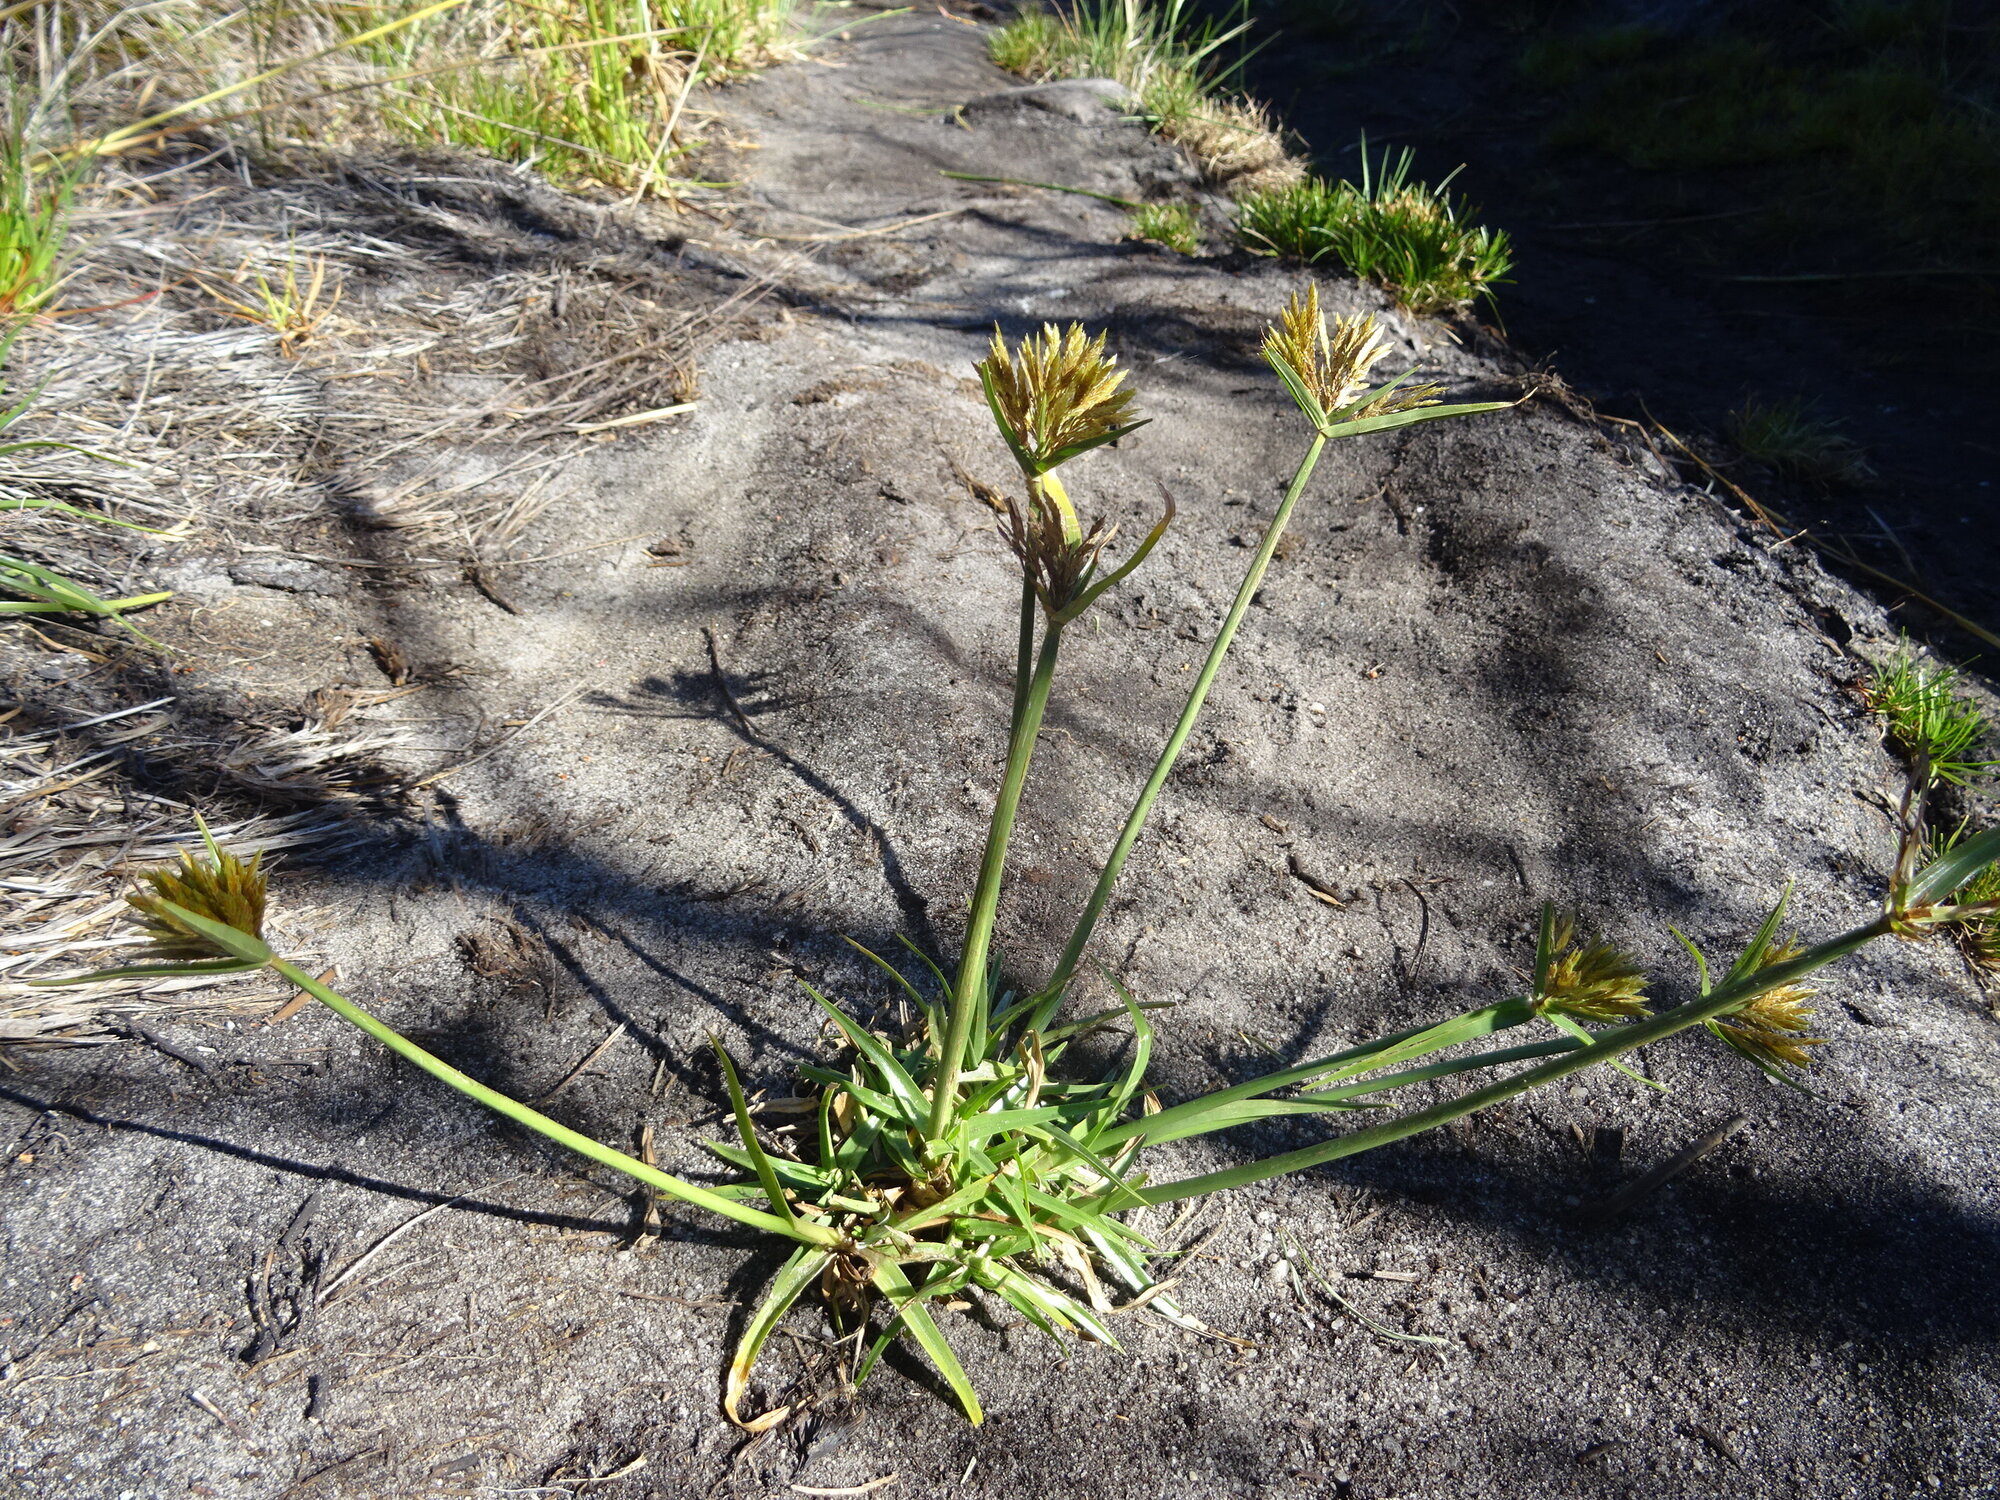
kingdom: Plantae
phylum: Tracheophyta
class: Liliopsida
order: Poales
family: Cyperaceae
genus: Cyperus
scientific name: Cyperus polystachyos
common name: Bunchy flat sedge
